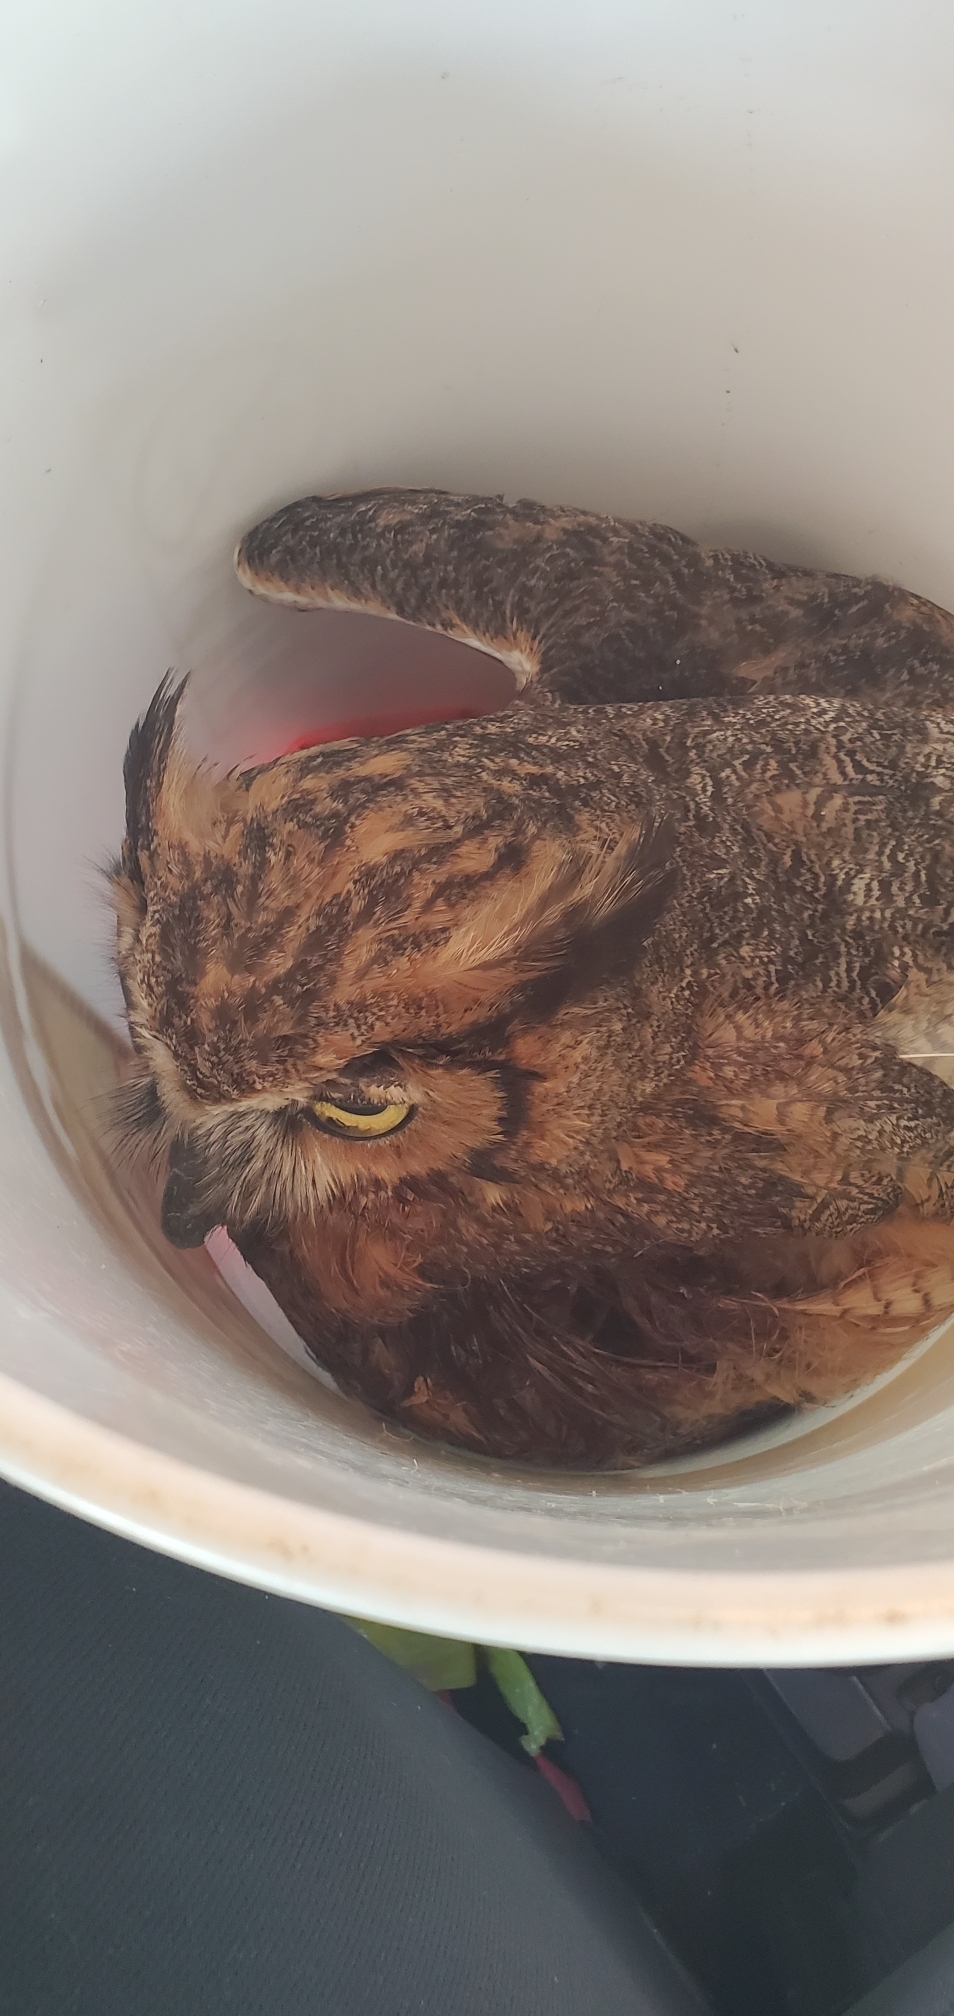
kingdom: Animalia
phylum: Chordata
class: Aves
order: Strigiformes
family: Strigidae
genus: Bubo
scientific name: Bubo virginianus
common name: Great horned owl
